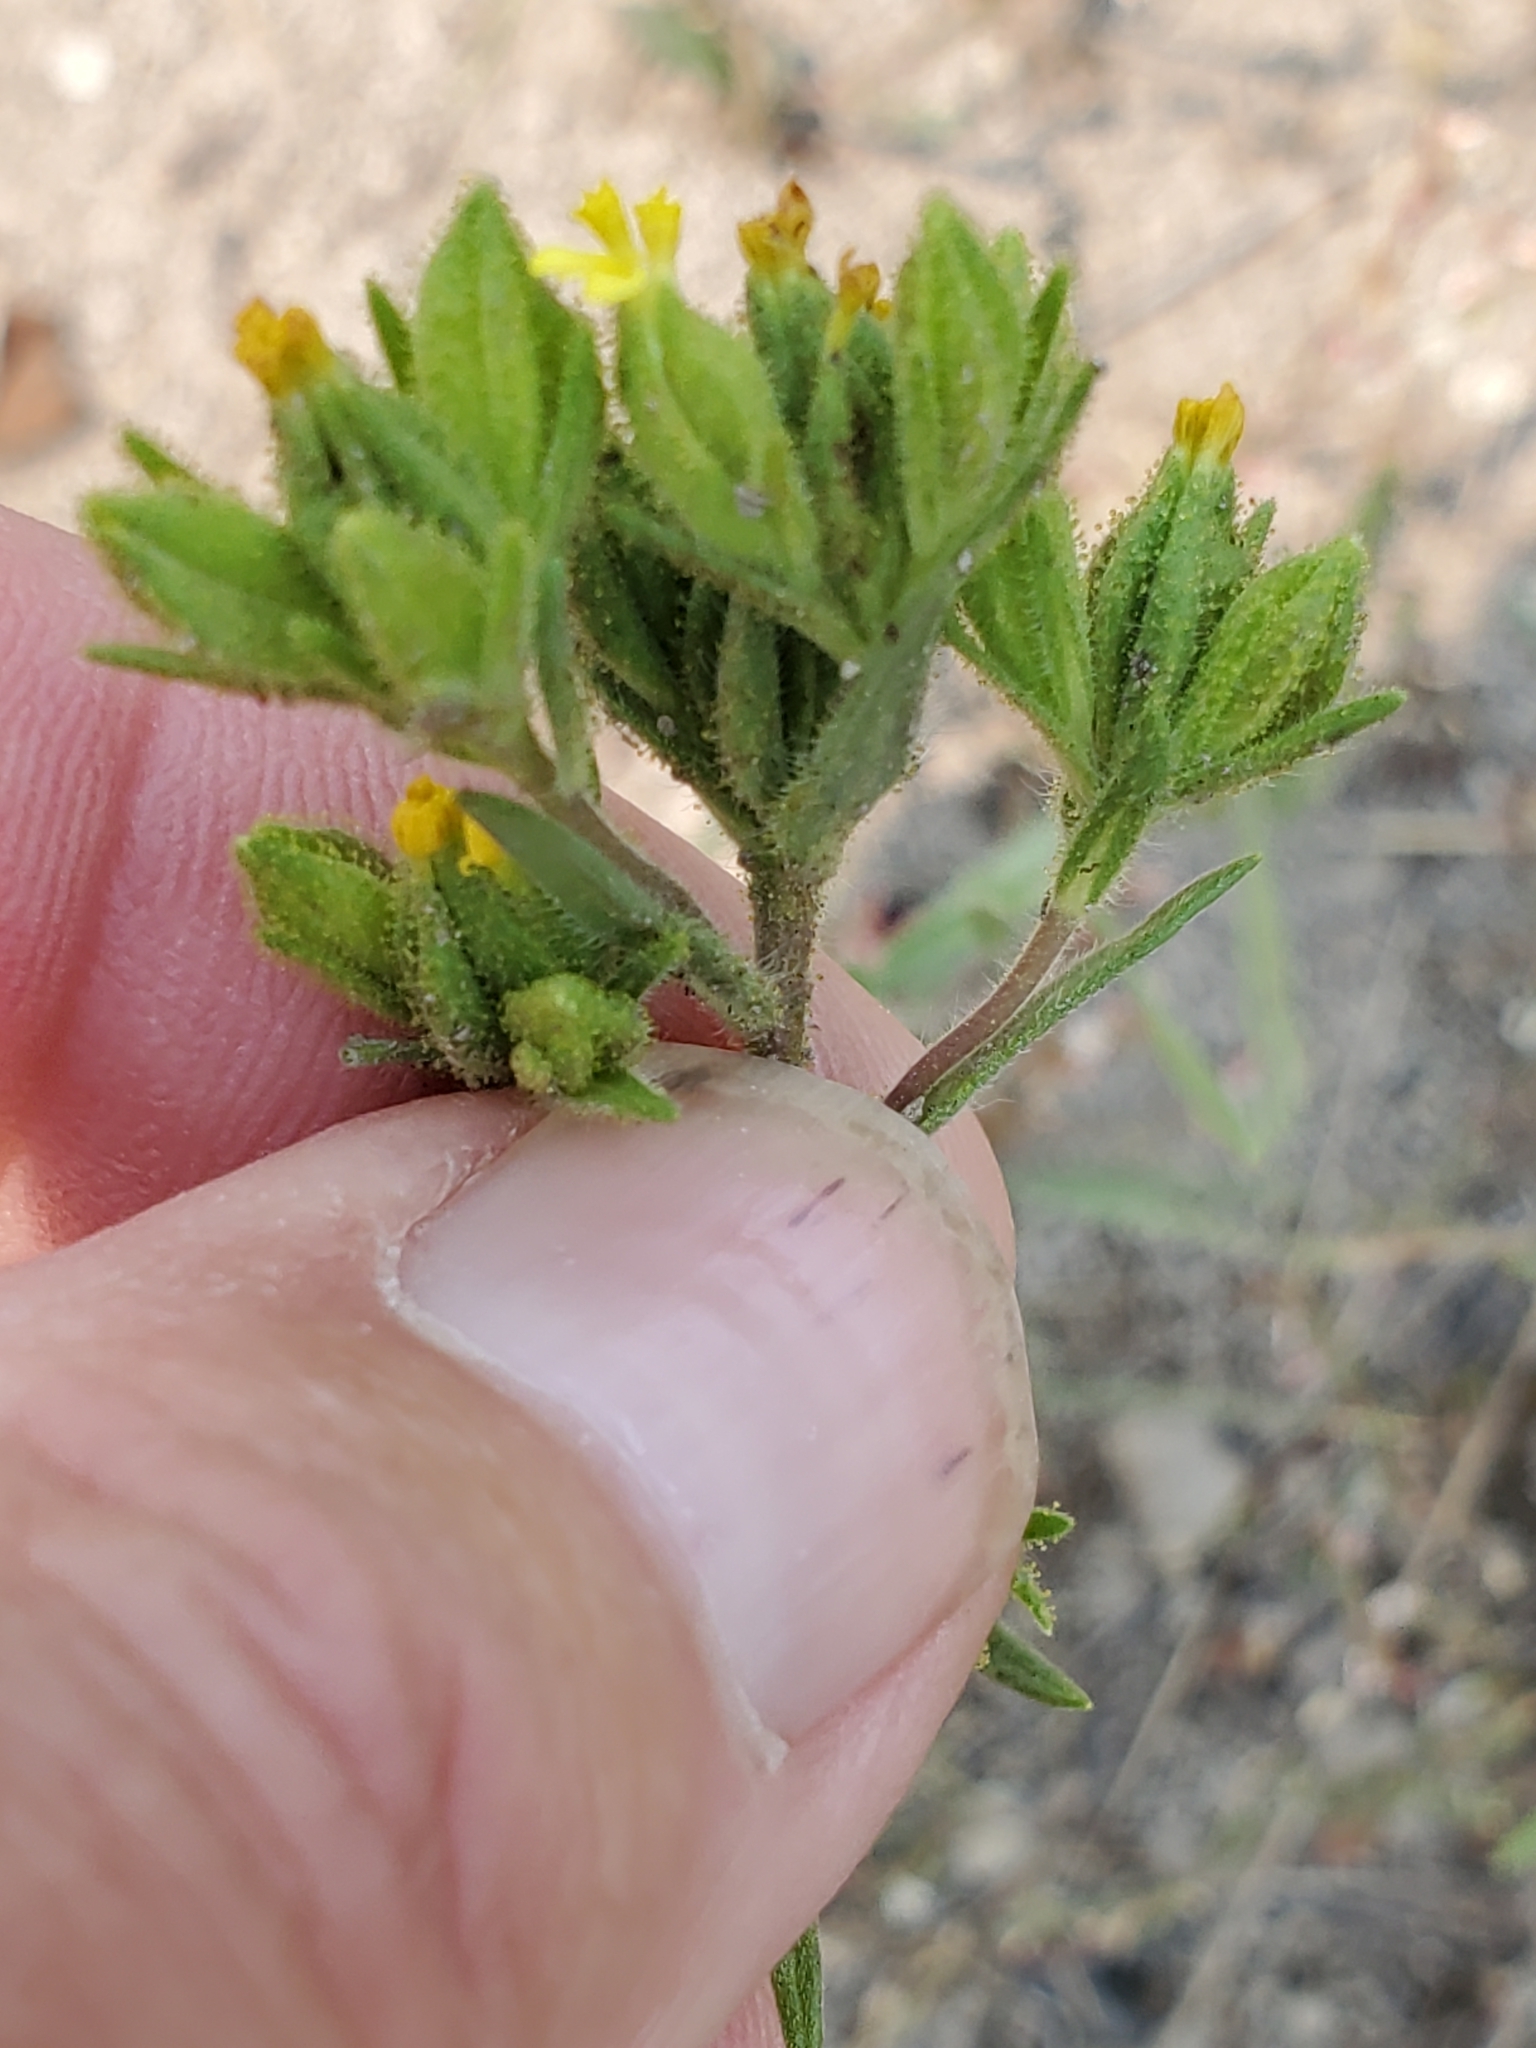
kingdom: Plantae
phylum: Tracheophyta
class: Magnoliopsida
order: Asterales
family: Asteraceae
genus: Madia
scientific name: Madia glomerata
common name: Mountain tarweed
